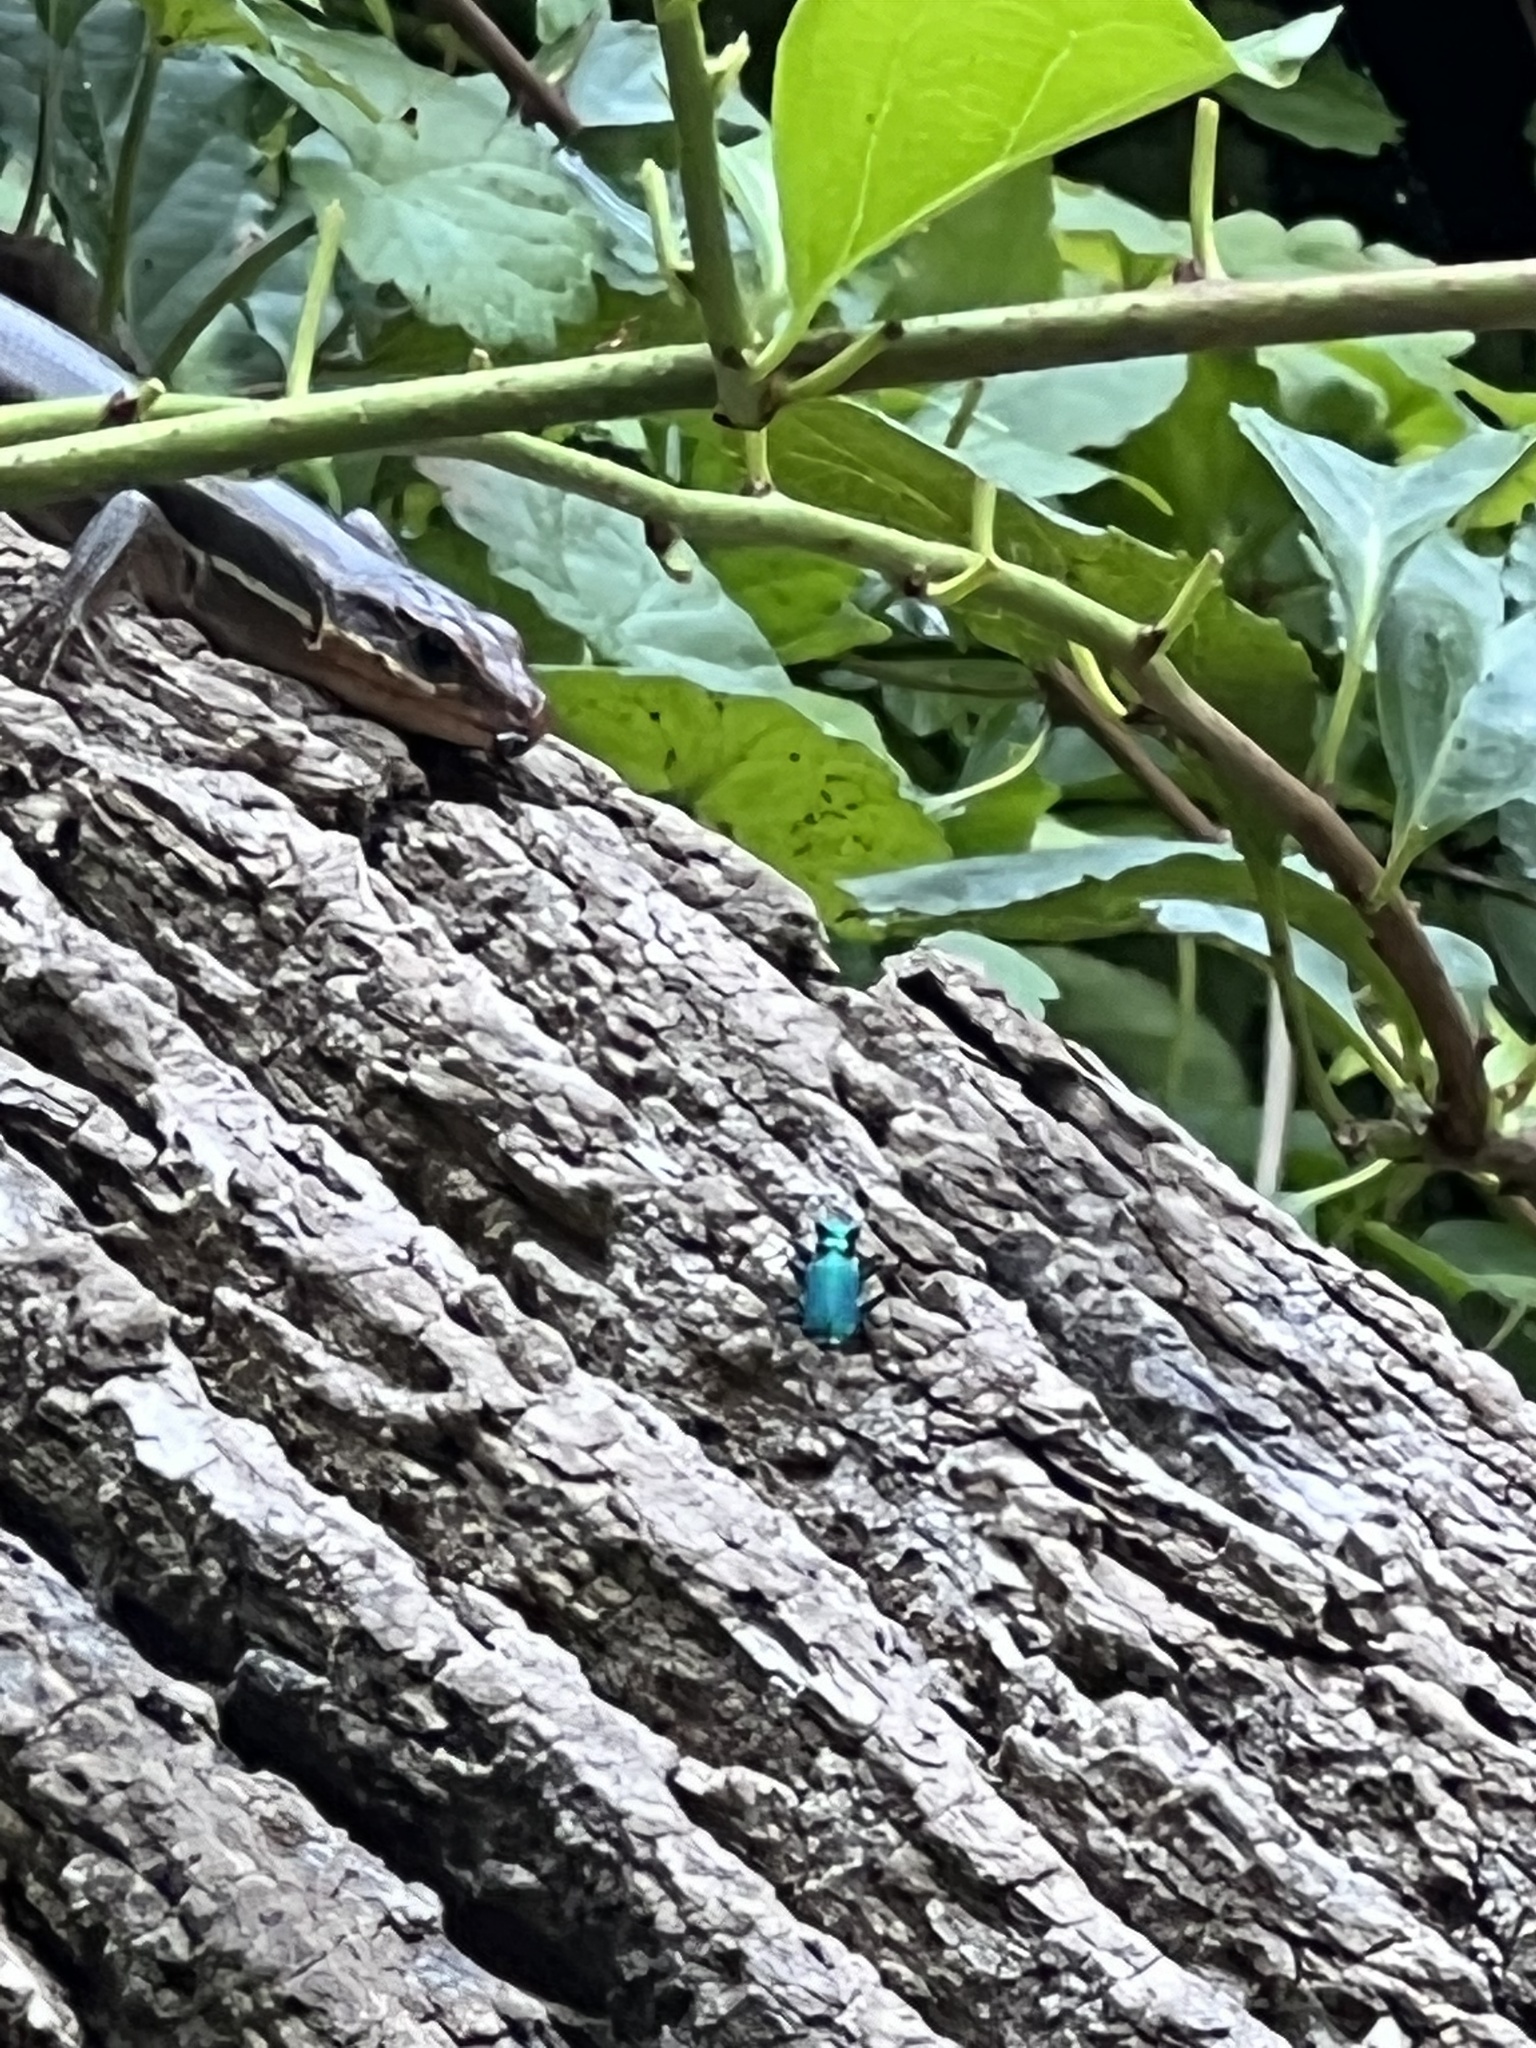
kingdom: Animalia
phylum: Arthropoda
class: Insecta
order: Coleoptera
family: Carabidae
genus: Cicindela
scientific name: Cicindela sexguttata
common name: Six-spotted tiger beetle
